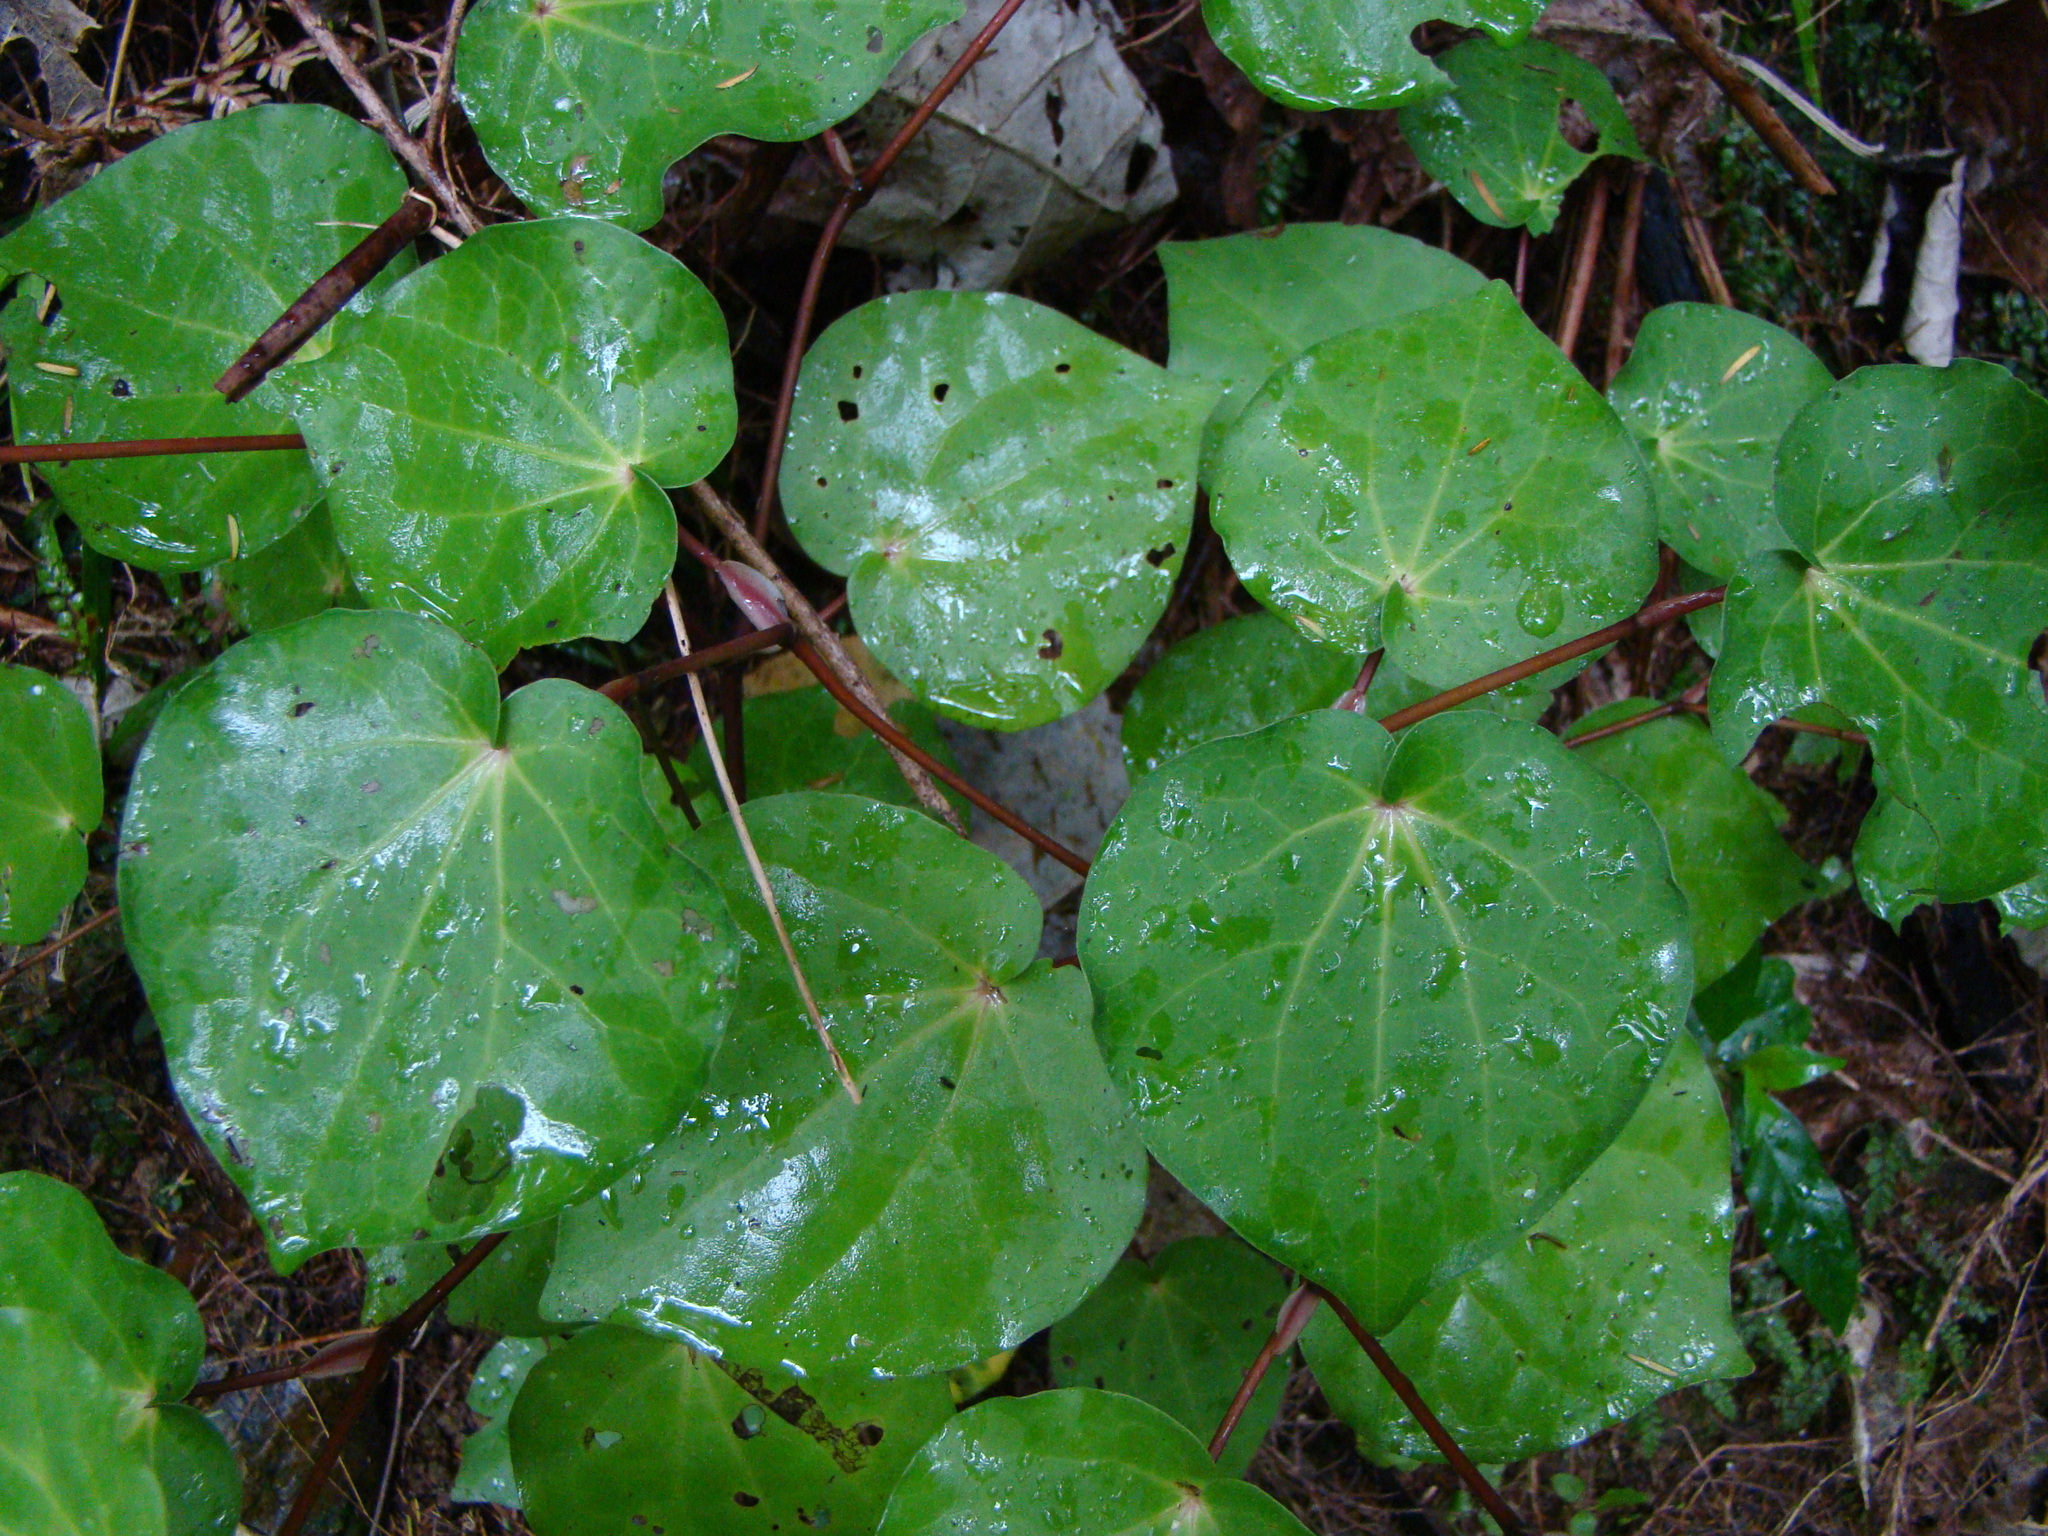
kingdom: Plantae
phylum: Tracheophyta
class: Magnoliopsida
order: Piperales
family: Piperaceae
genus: Macropiper
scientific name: Macropiper excelsum
